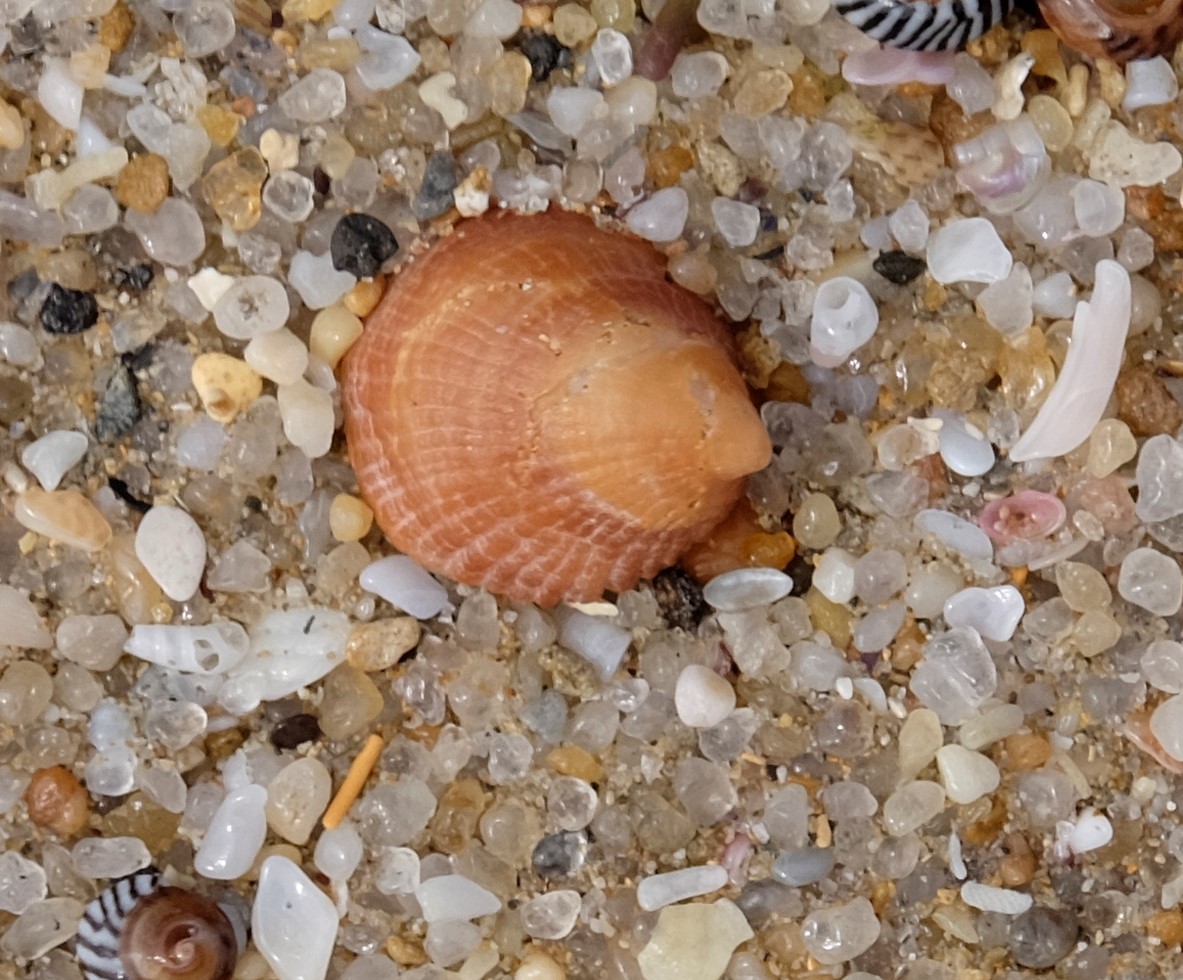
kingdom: Animalia
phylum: Mollusca
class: Gastropoda
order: Littorinimorpha
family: Hipponicidae
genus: Sabia
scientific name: Sabia australis
